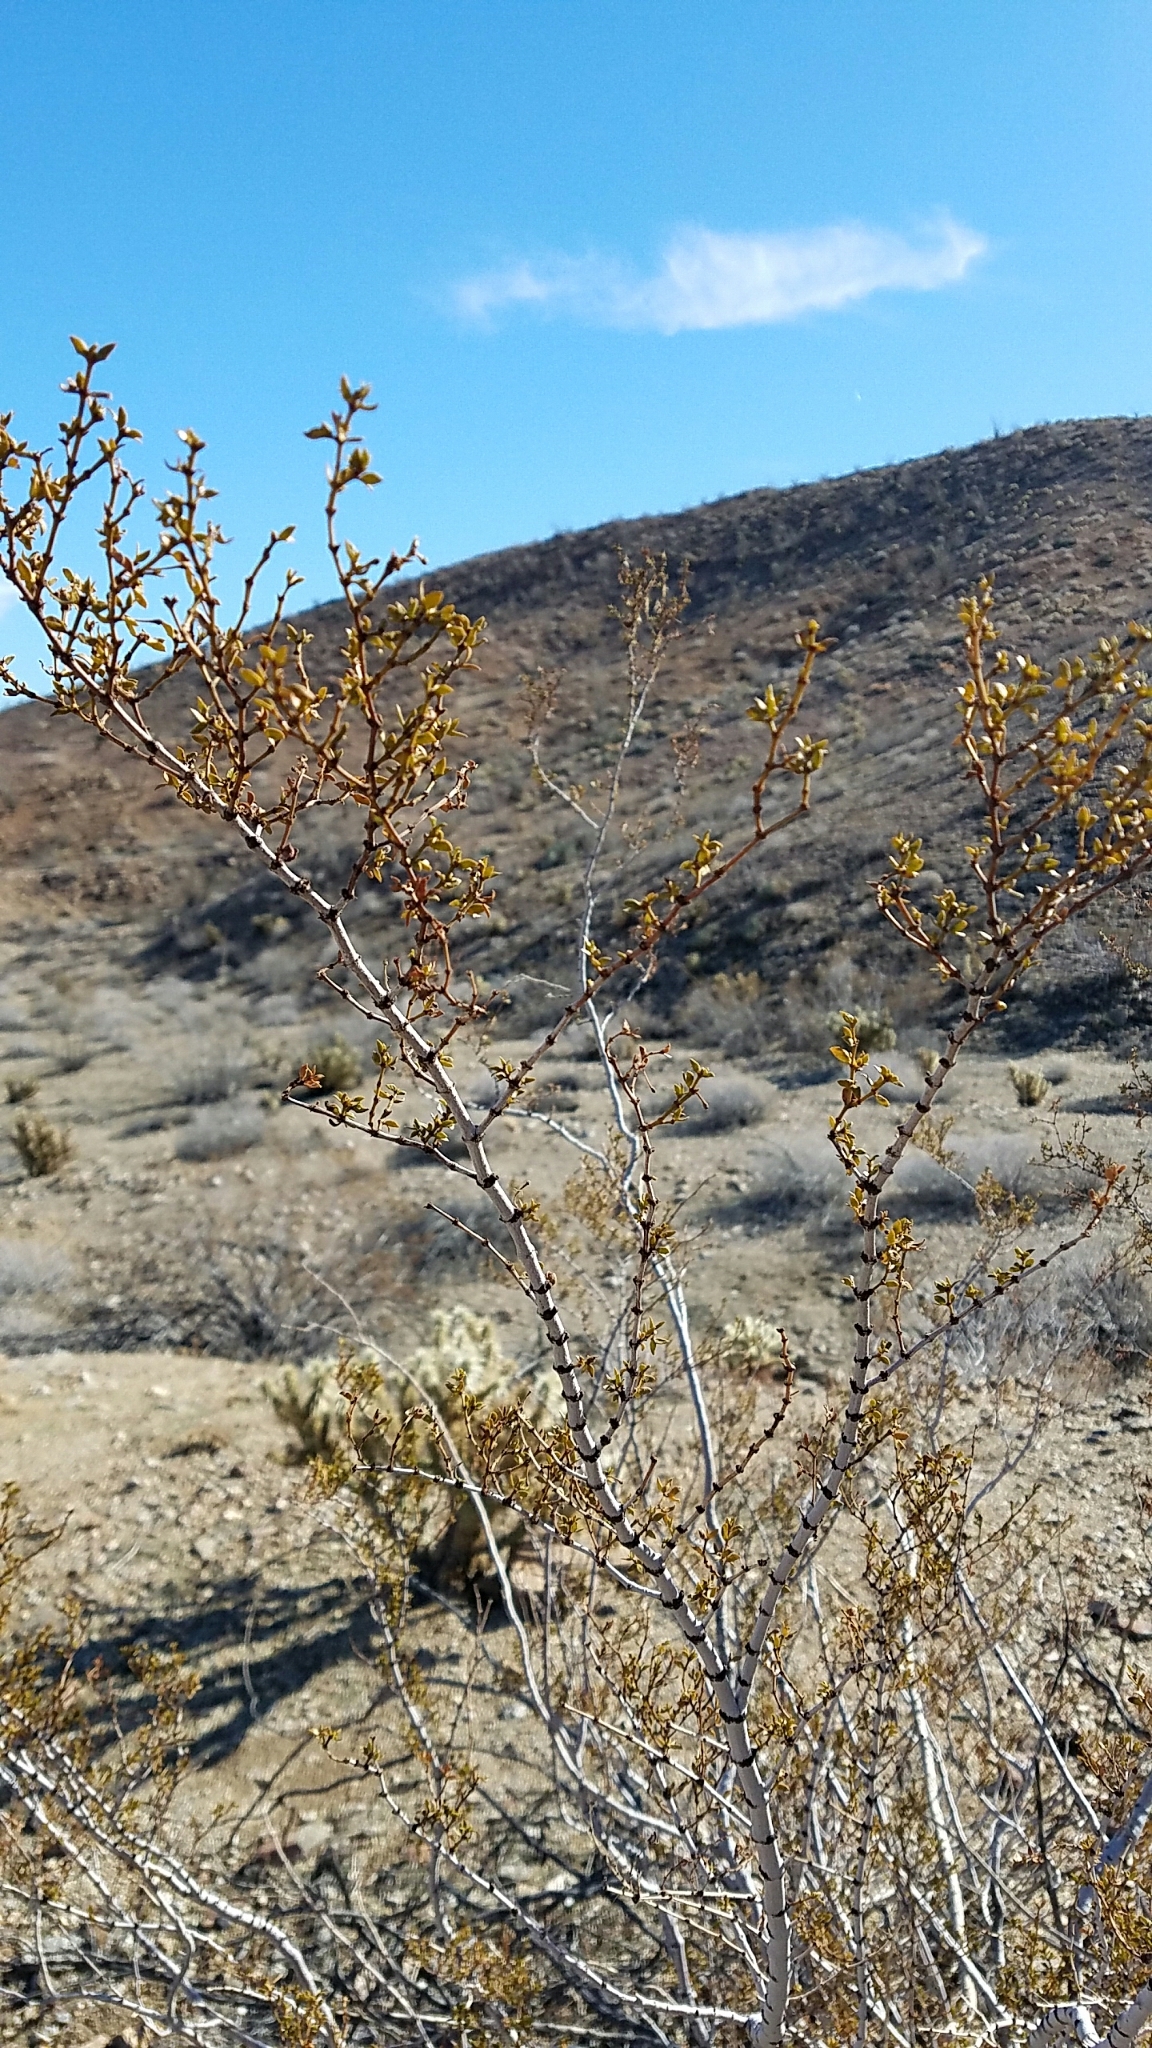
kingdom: Plantae
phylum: Tracheophyta
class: Magnoliopsida
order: Zygophyllales
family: Zygophyllaceae
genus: Larrea
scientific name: Larrea tridentata
